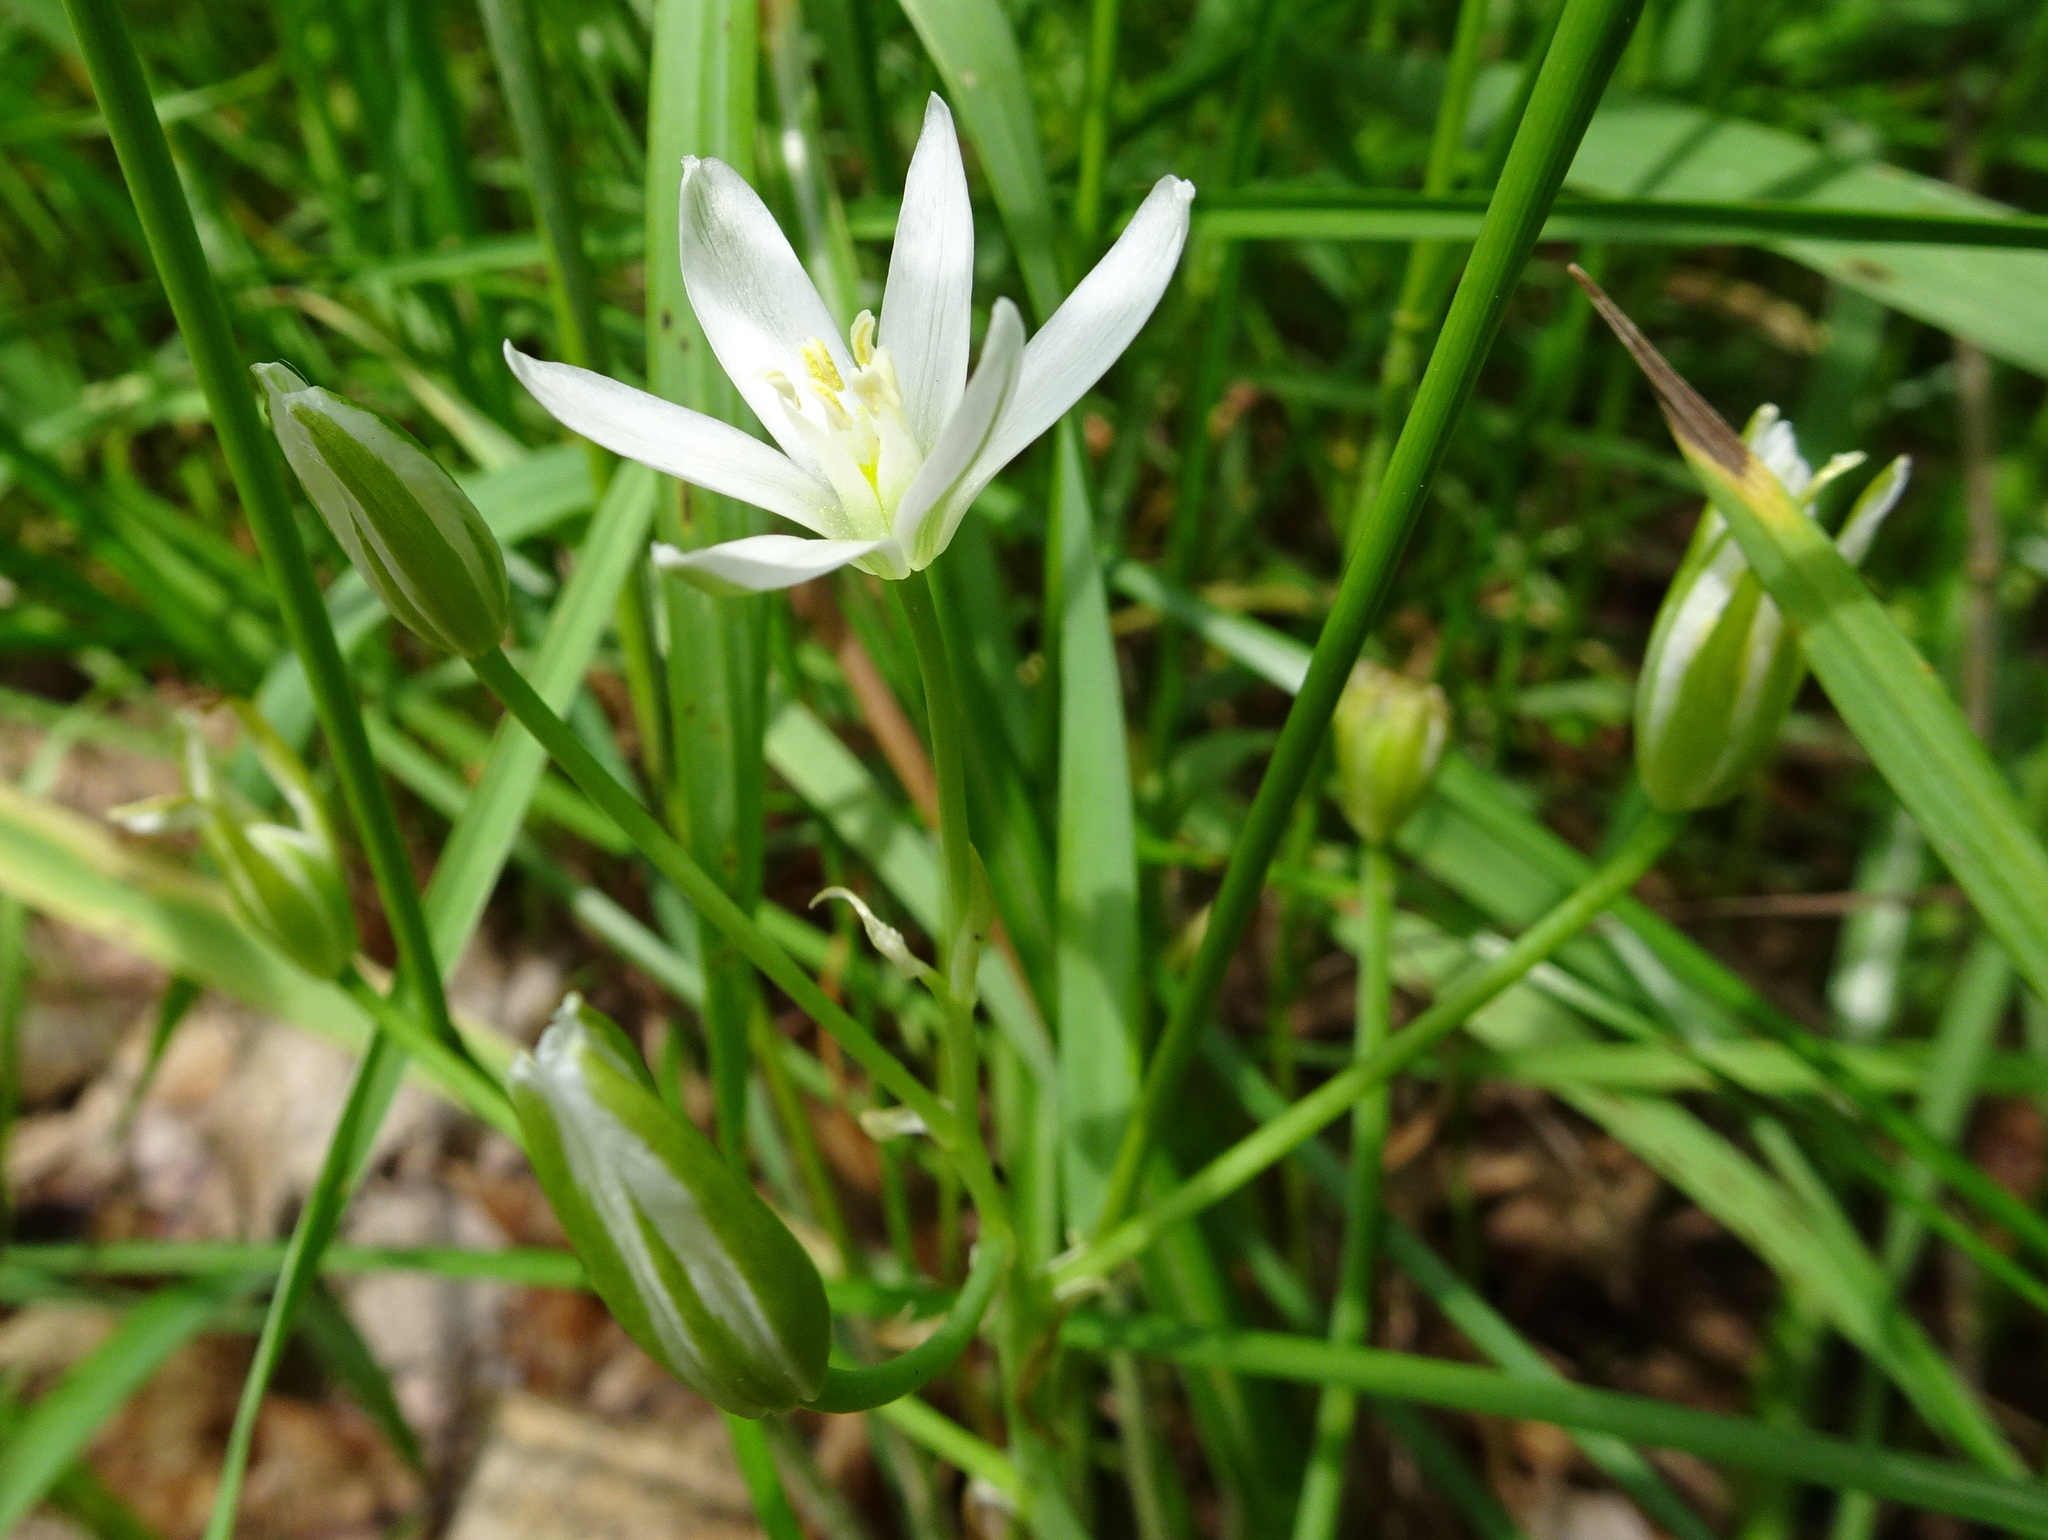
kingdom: Plantae
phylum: Tracheophyta
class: Liliopsida
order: Asparagales
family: Asparagaceae
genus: Ornithogalum
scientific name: Ornithogalum umbellatum
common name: Garden star-of-bethlehem
